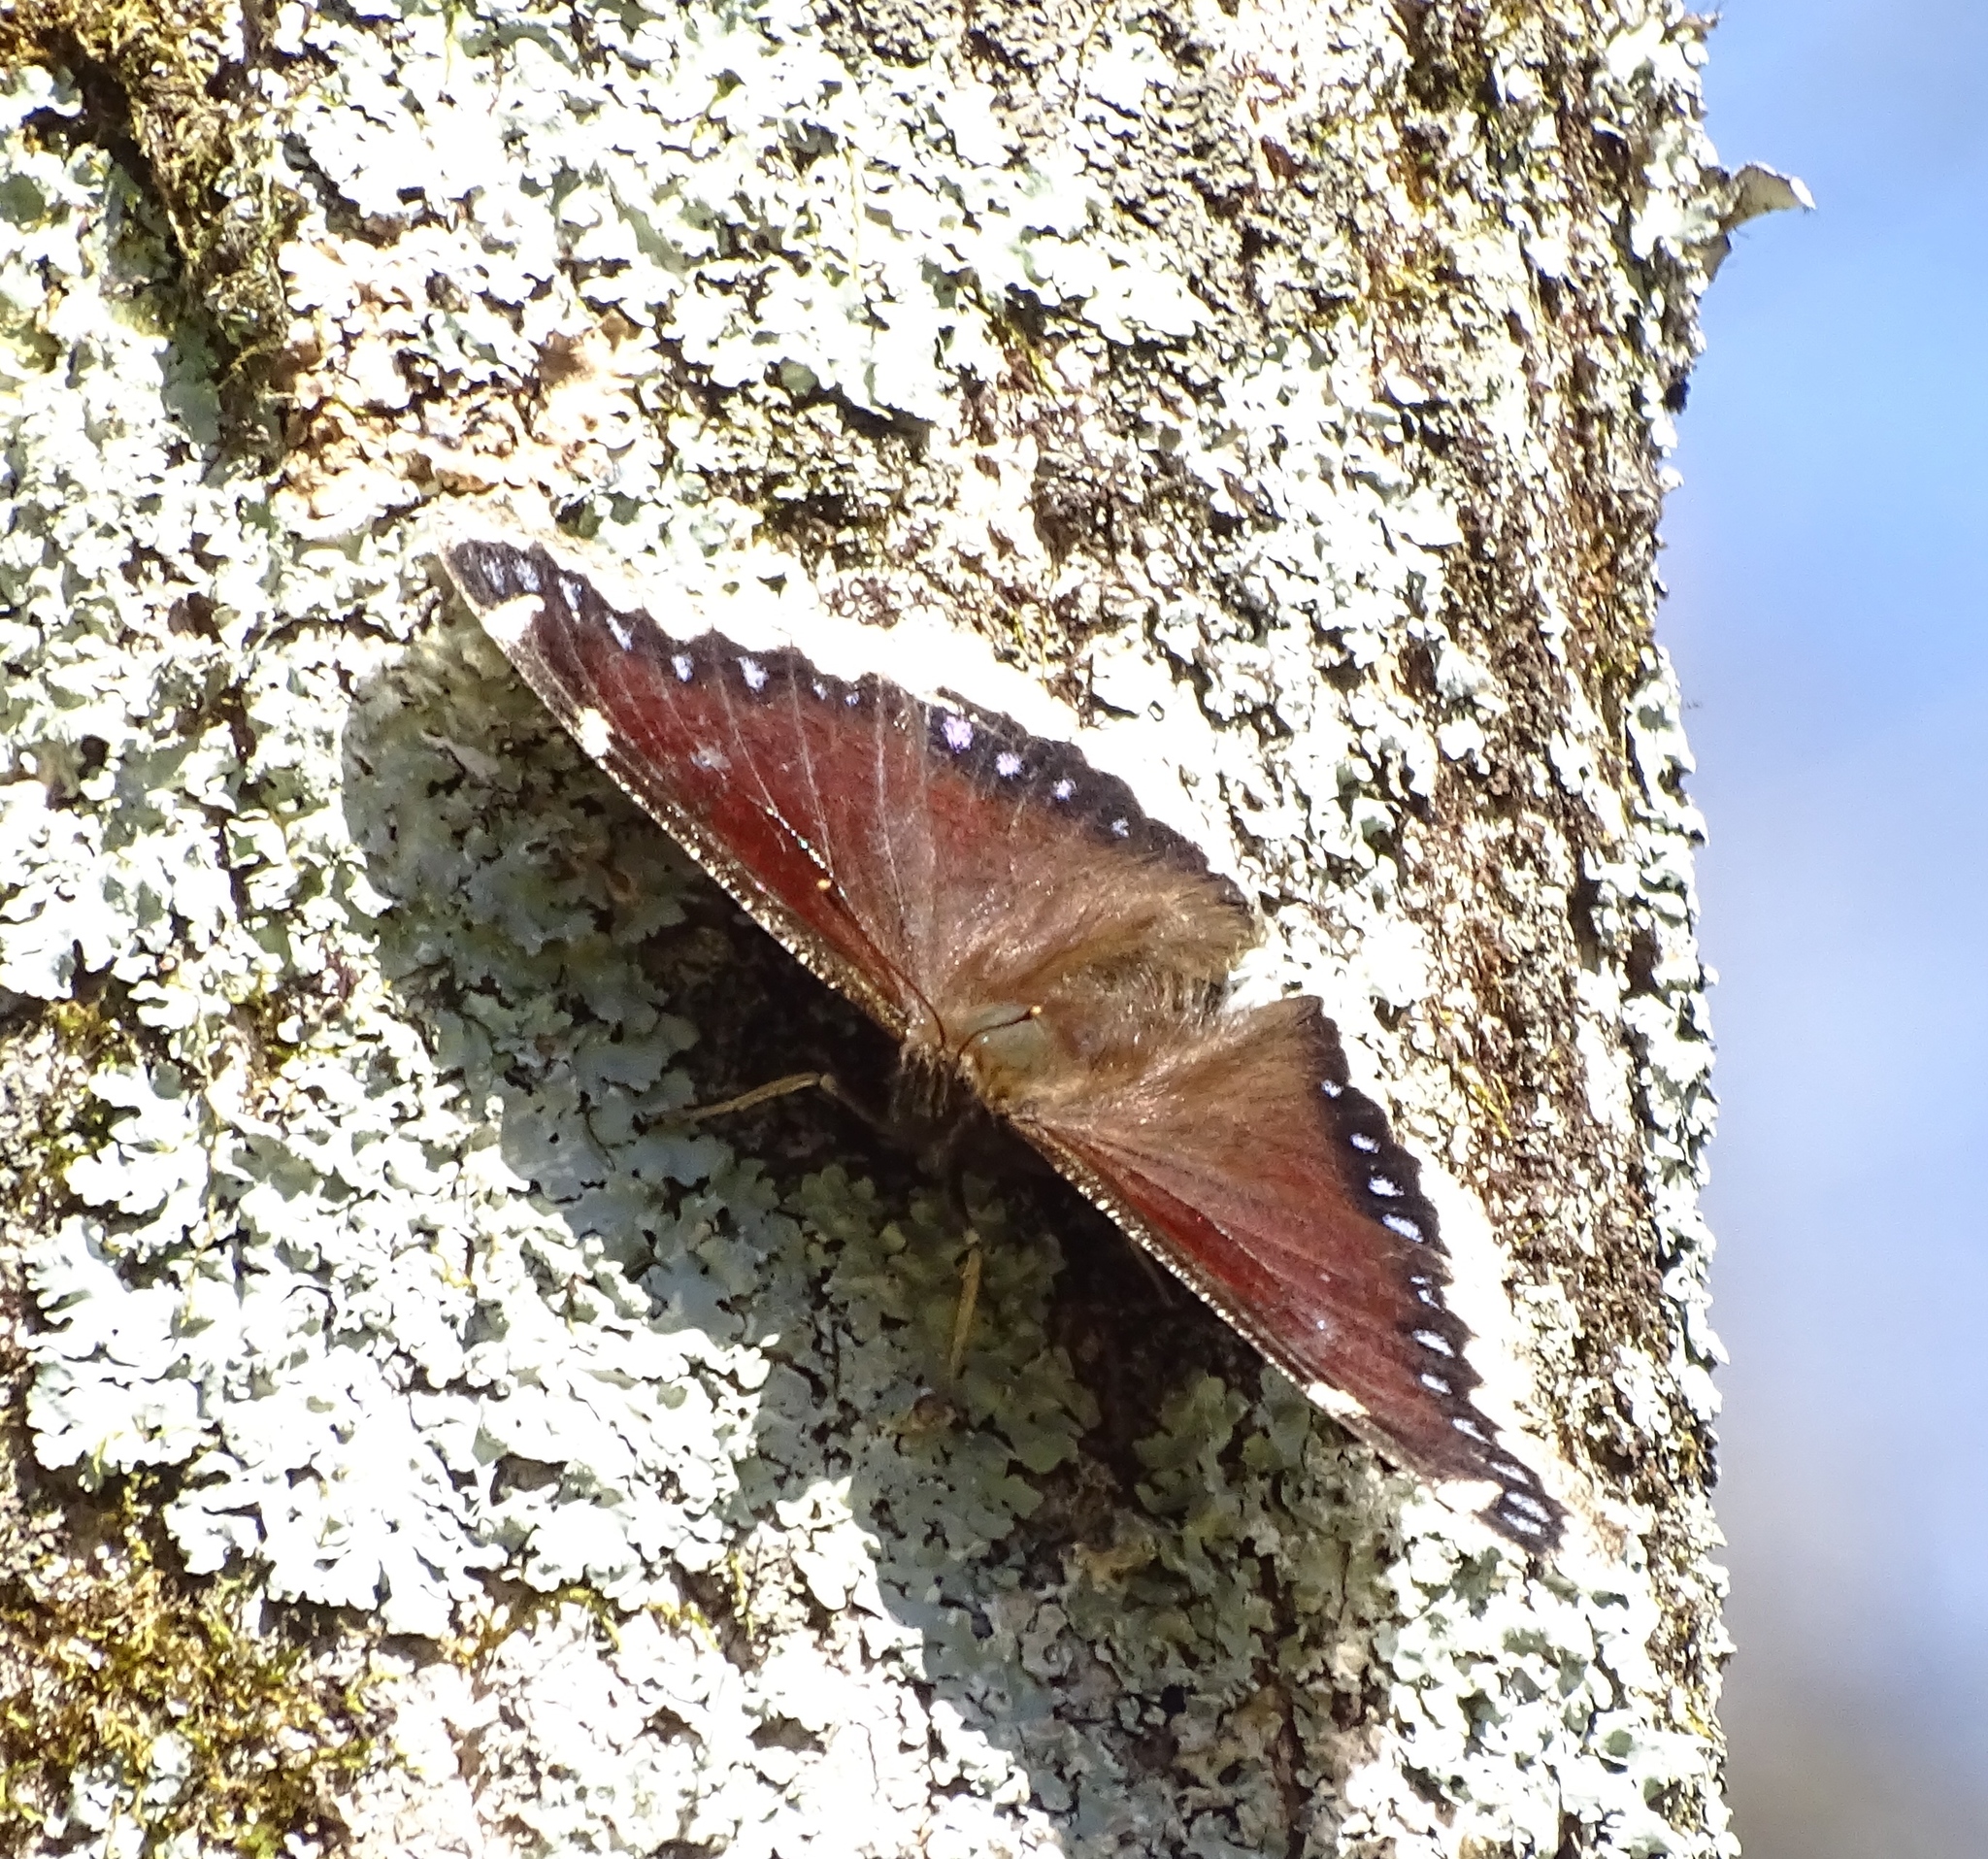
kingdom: Animalia
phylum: Arthropoda
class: Insecta
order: Lepidoptera
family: Nymphalidae
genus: Nymphalis
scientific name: Nymphalis antiopa
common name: Camberwell beauty
